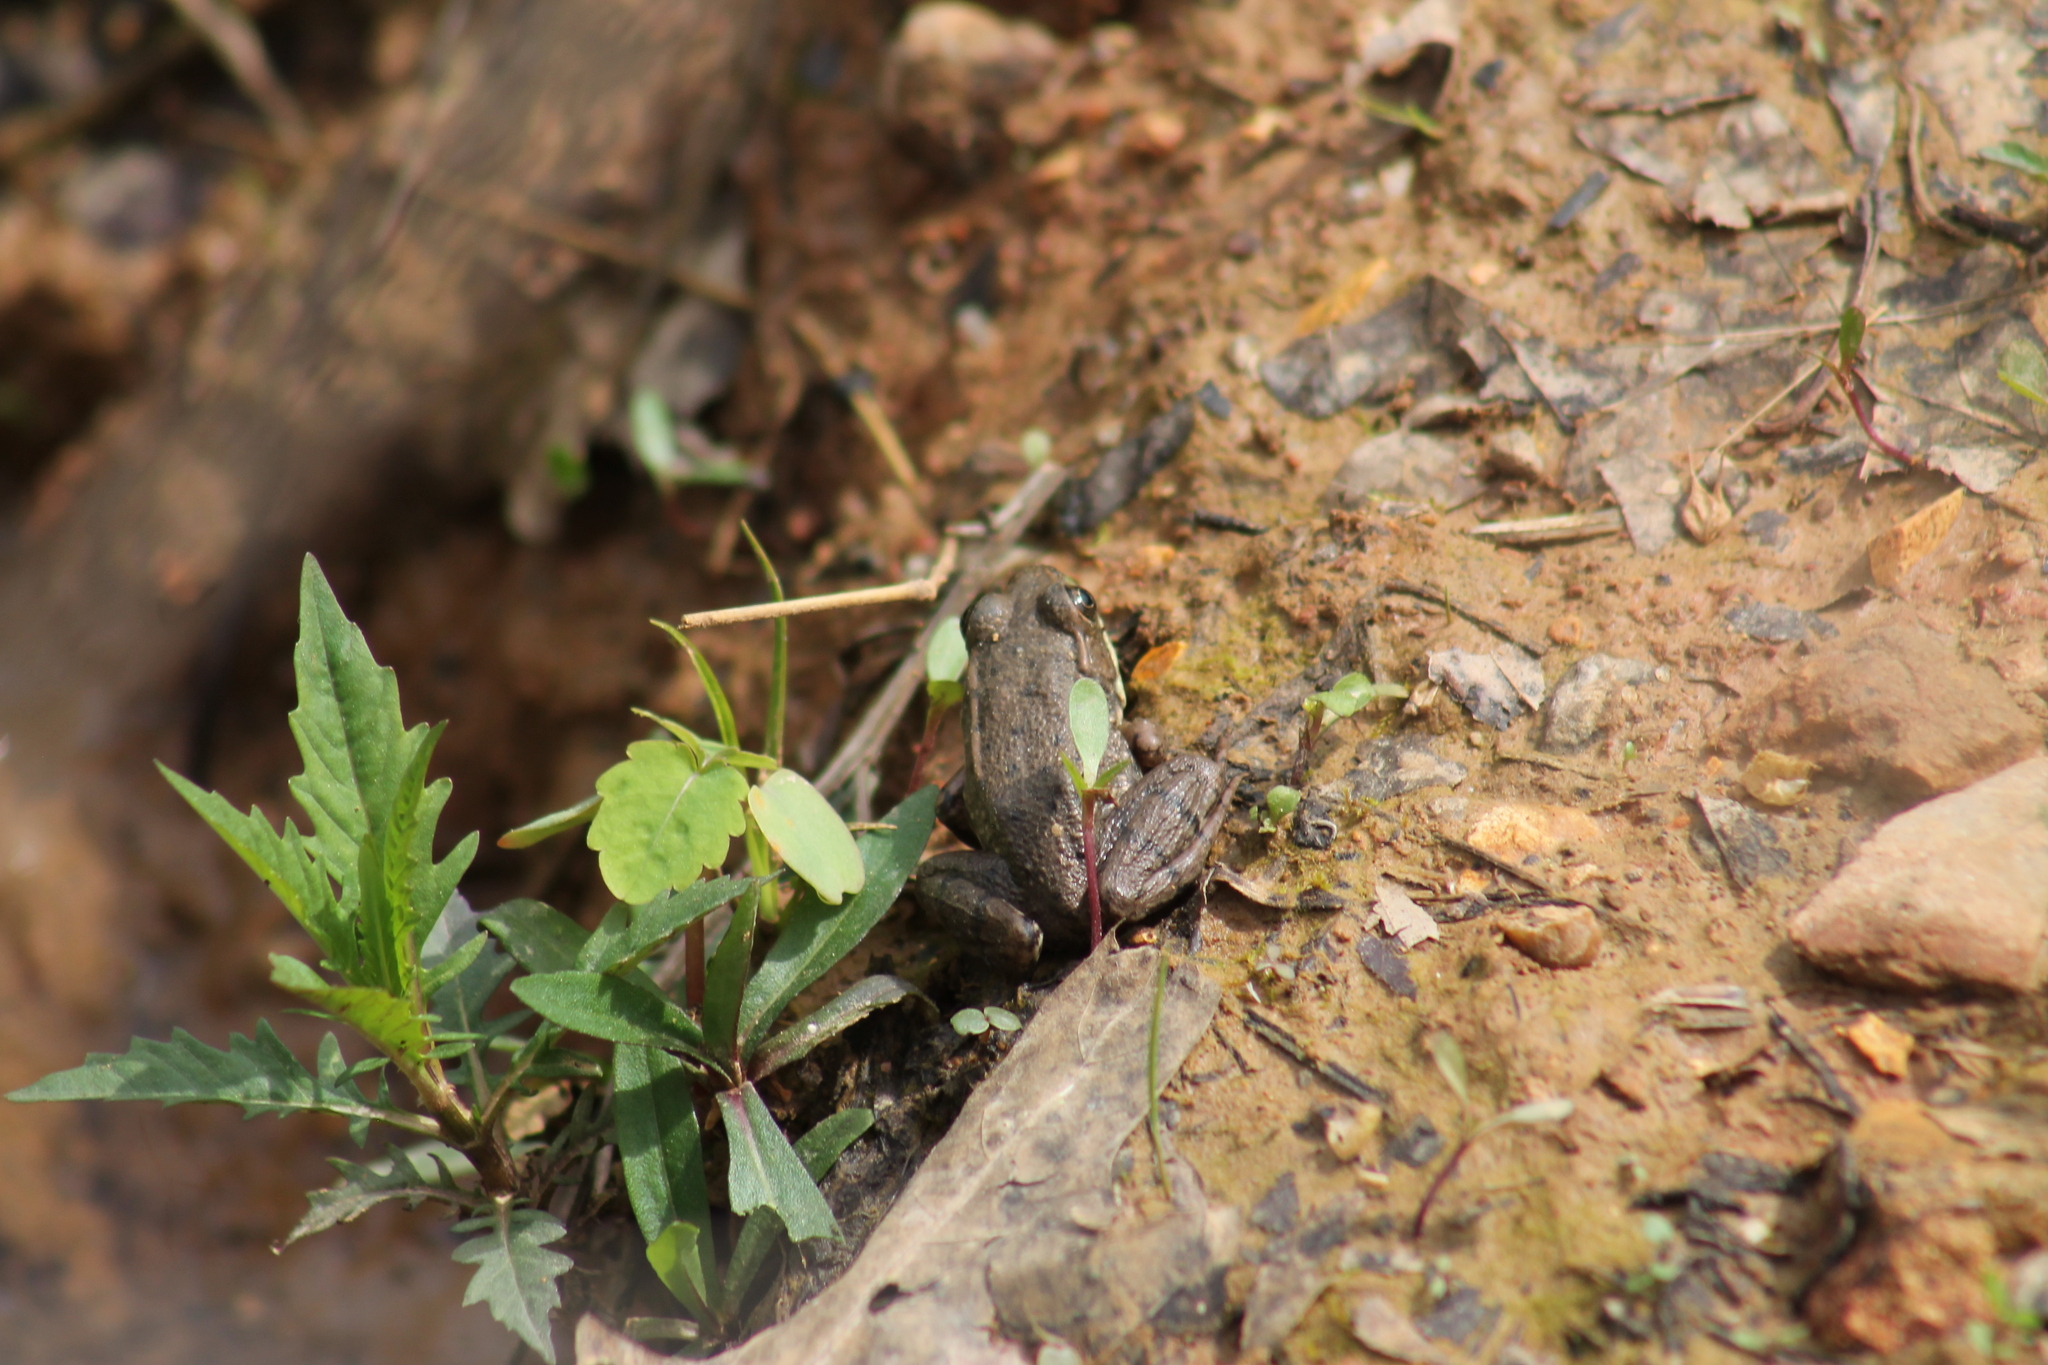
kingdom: Animalia
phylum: Chordata
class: Amphibia
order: Anura
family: Ranidae
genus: Lithobates
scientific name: Lithobates clamitans
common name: Green frog
